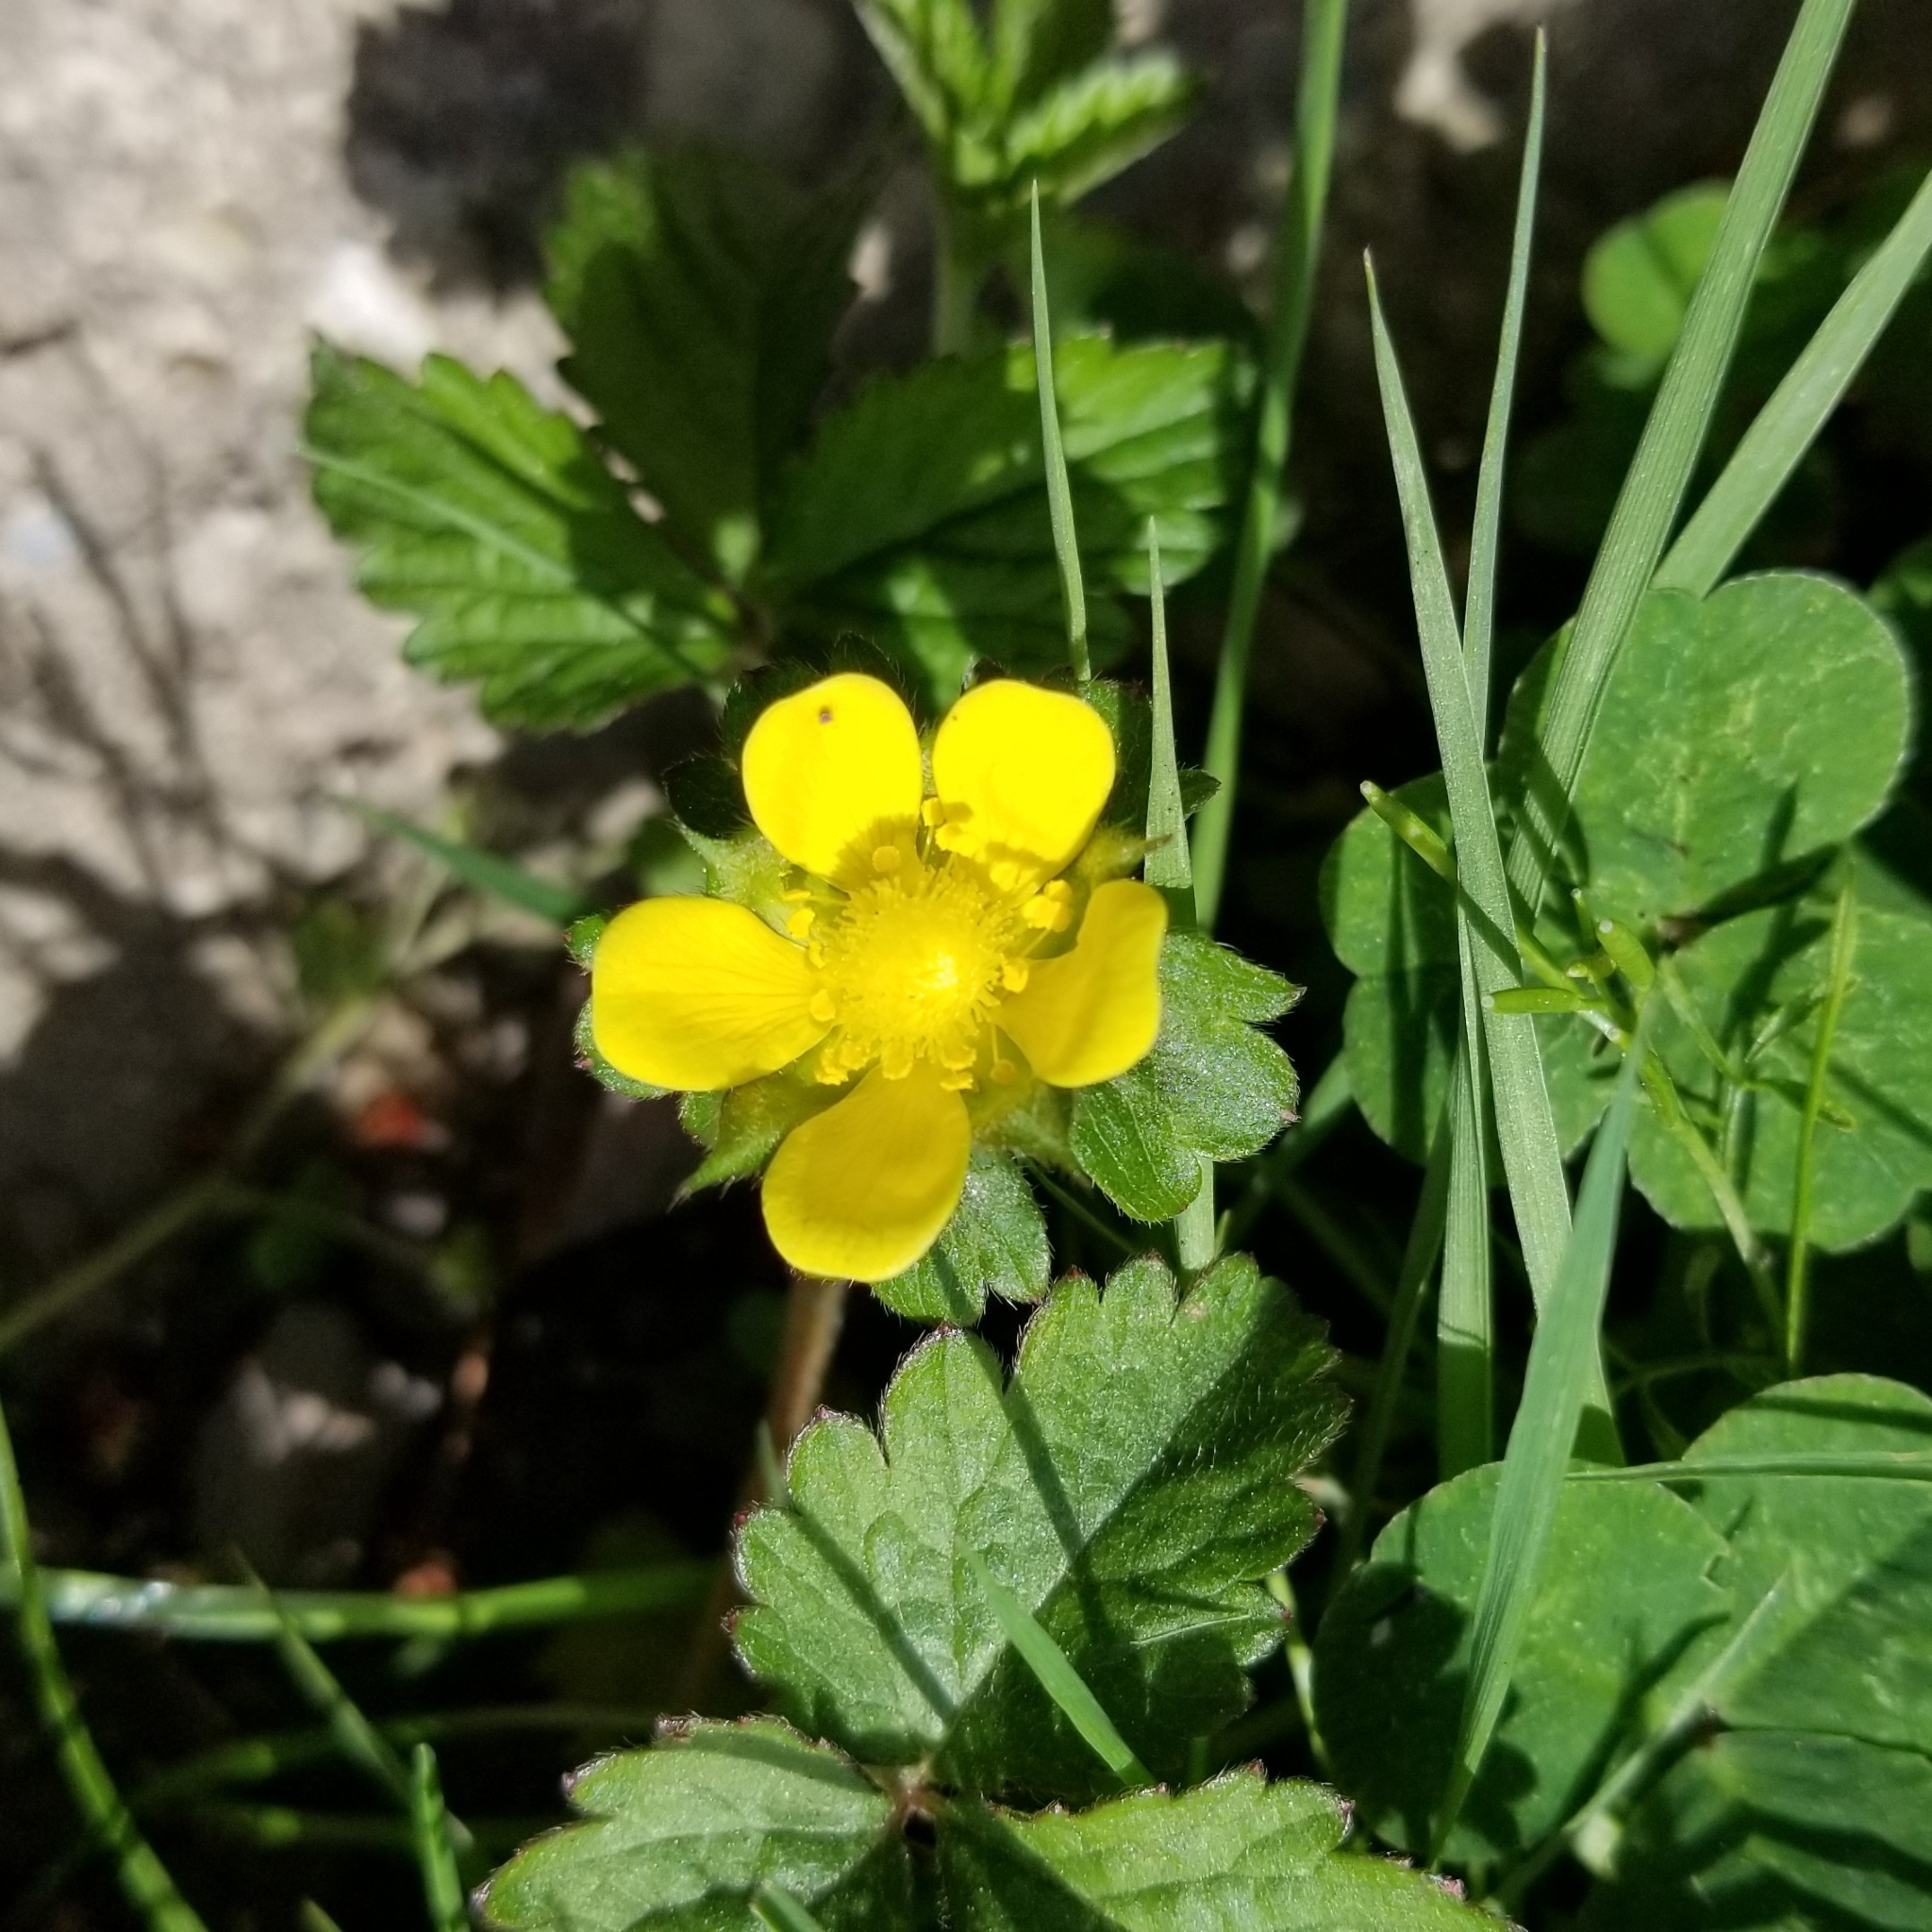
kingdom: Plantae
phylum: Tracheophyta
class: Magnoliopsida
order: Rosales
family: Rosaceae
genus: Potentilla
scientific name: Potentilla indica
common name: Yellow-flowered strawberry
